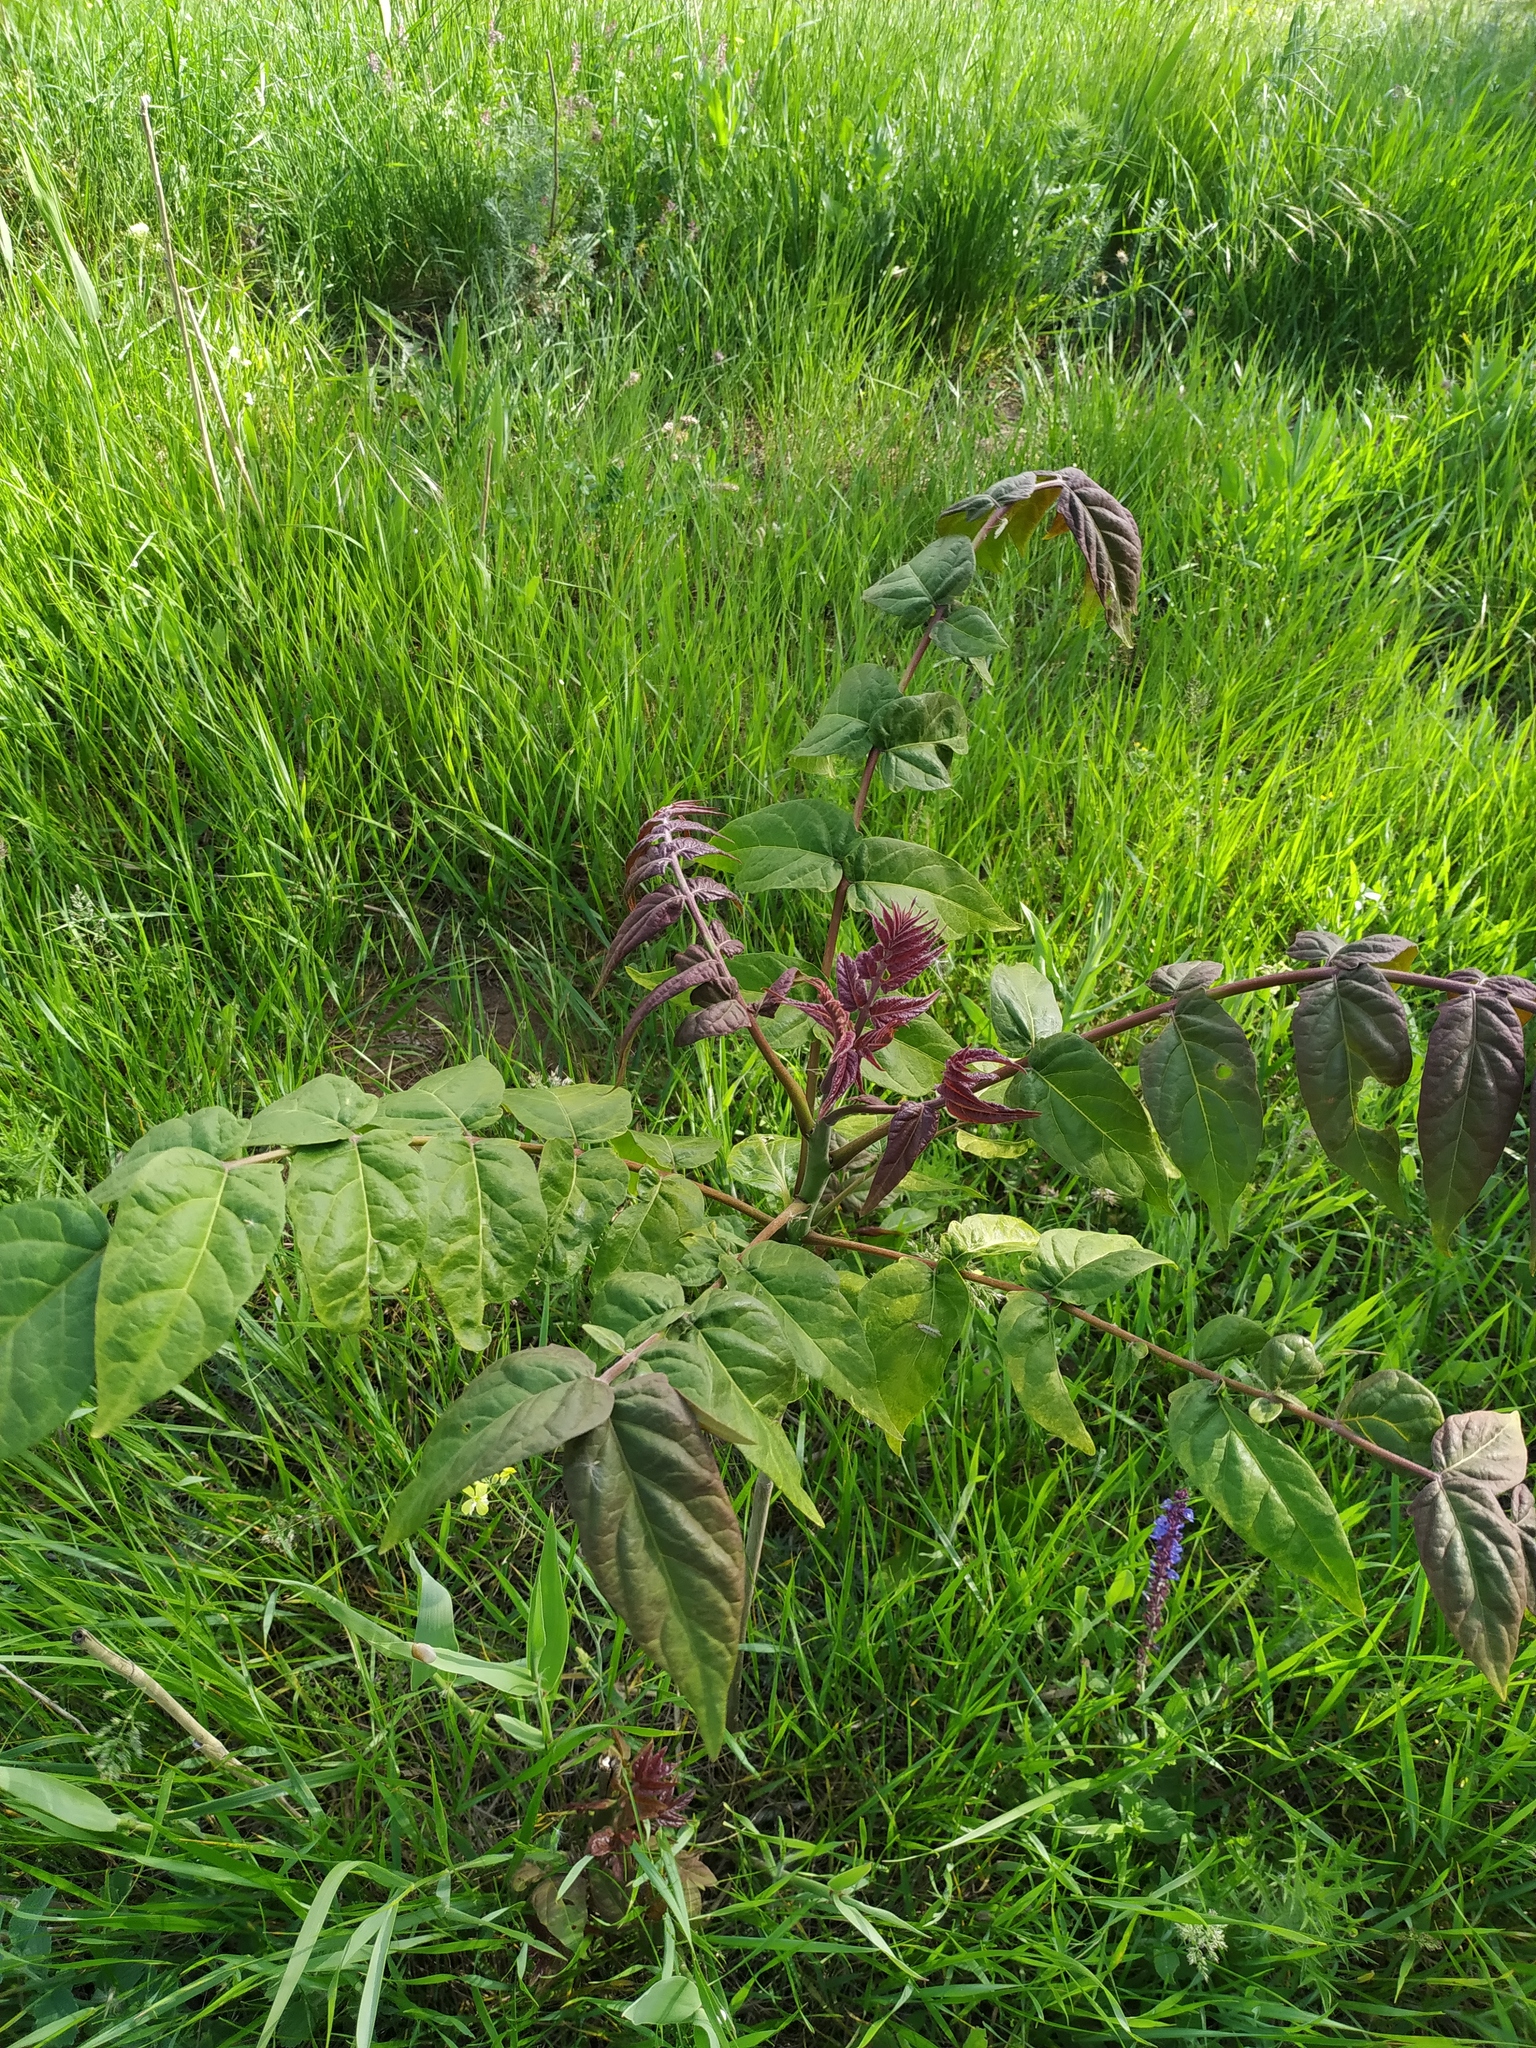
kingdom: Plantae
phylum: Tracheophyta
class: Magnoliopsida
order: Sapindales
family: Simaroubaceae
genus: Ailanthus
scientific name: Ailanthus altissima
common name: Tree-of-heaven
